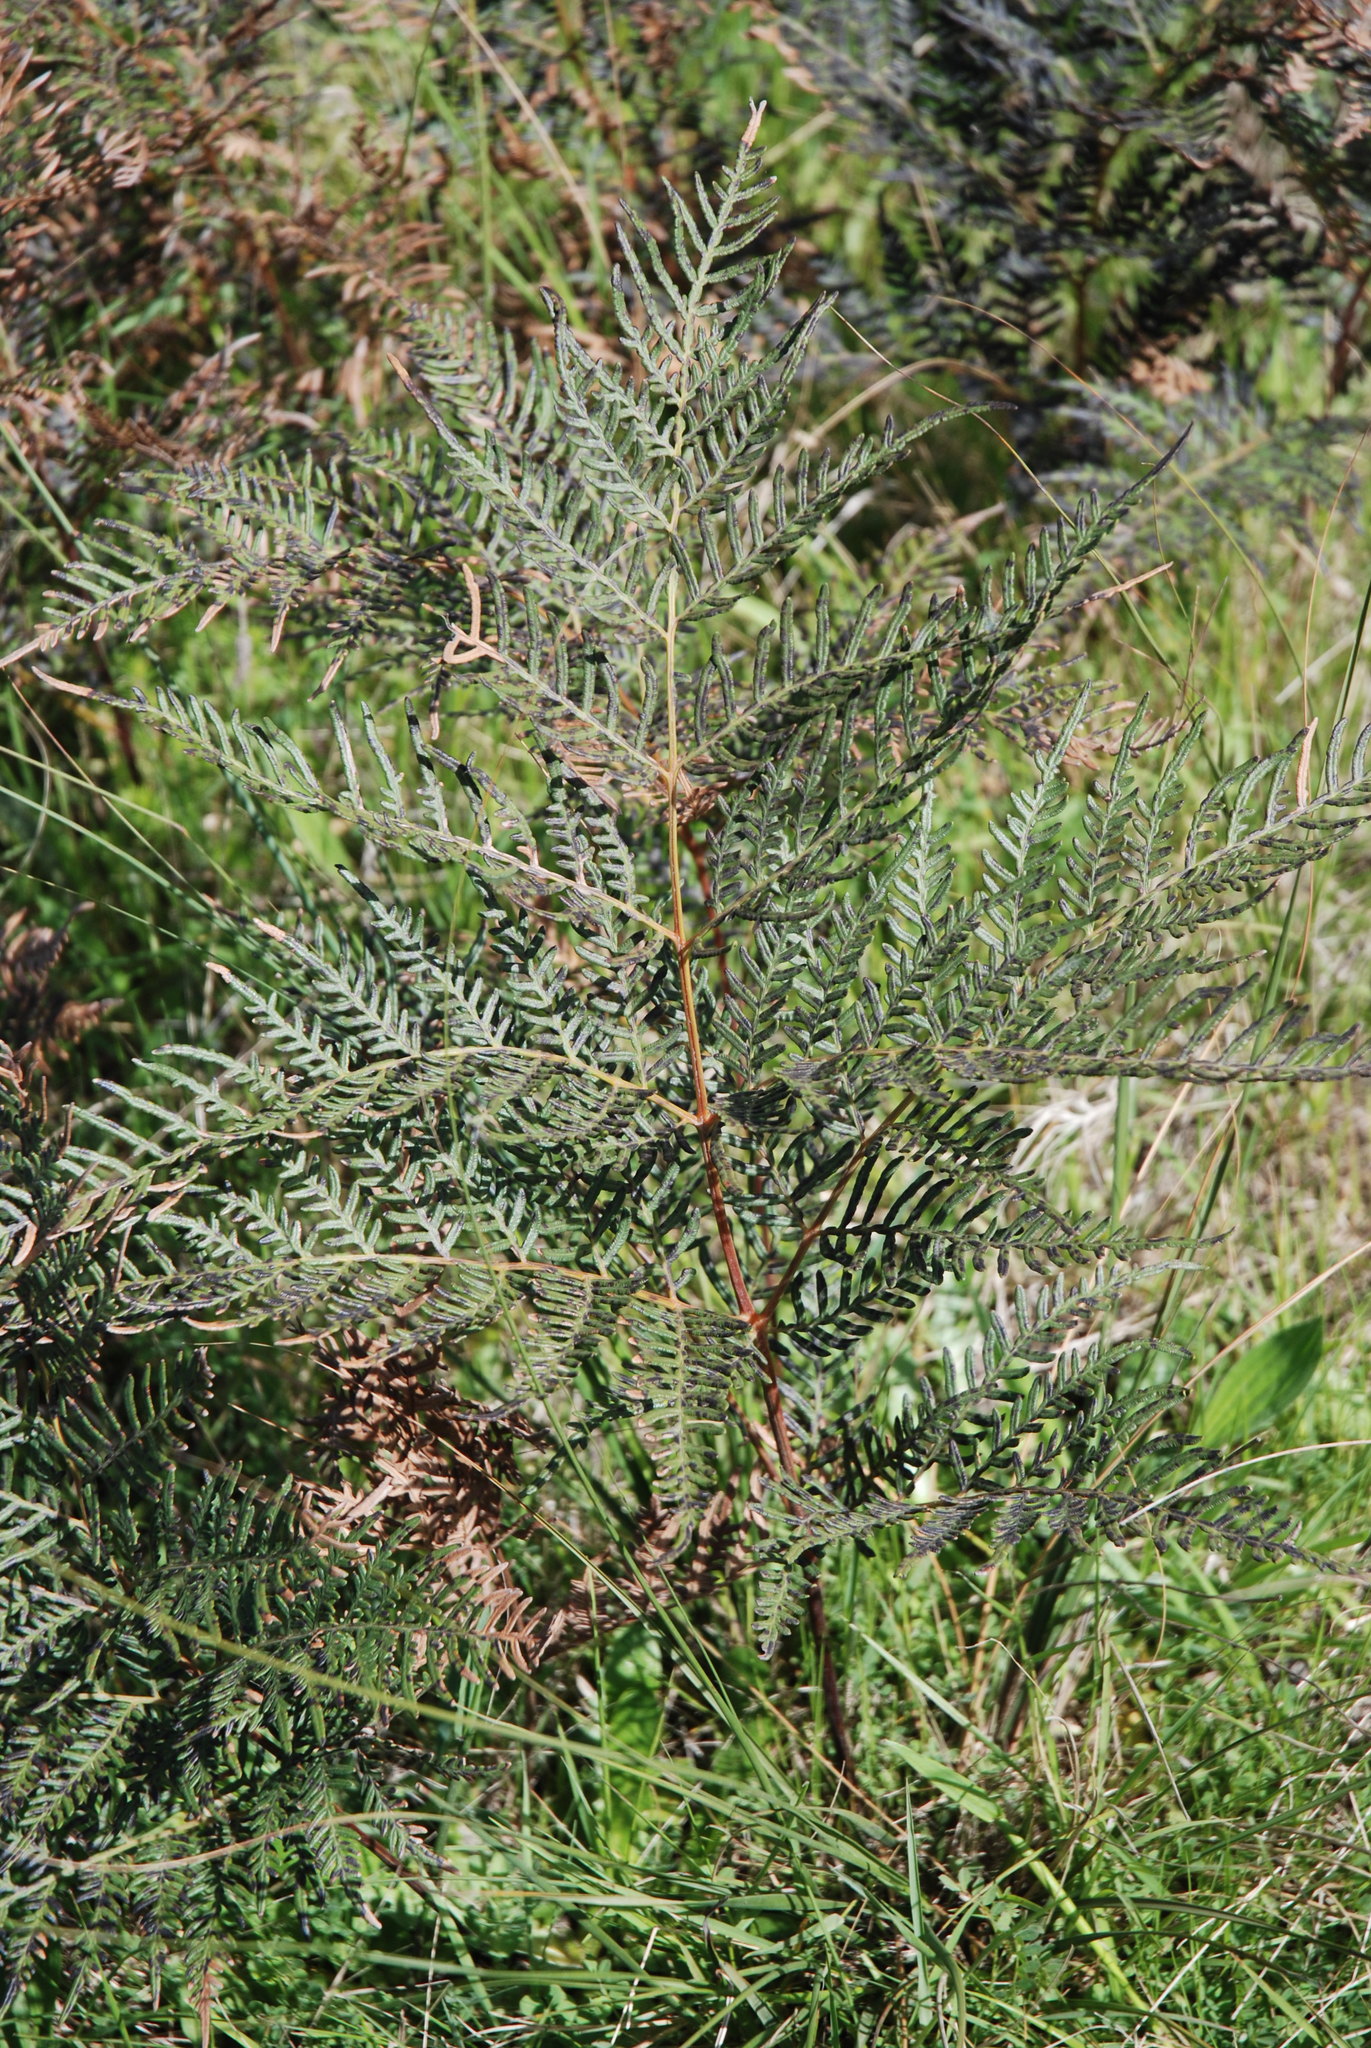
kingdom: Plantae
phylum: Tracheophyta
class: Polypodiopsida
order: Polypodiales
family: Dennstaedtiaceae
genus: Pteridium
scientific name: Pteridium esculentum
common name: Bracken fern
